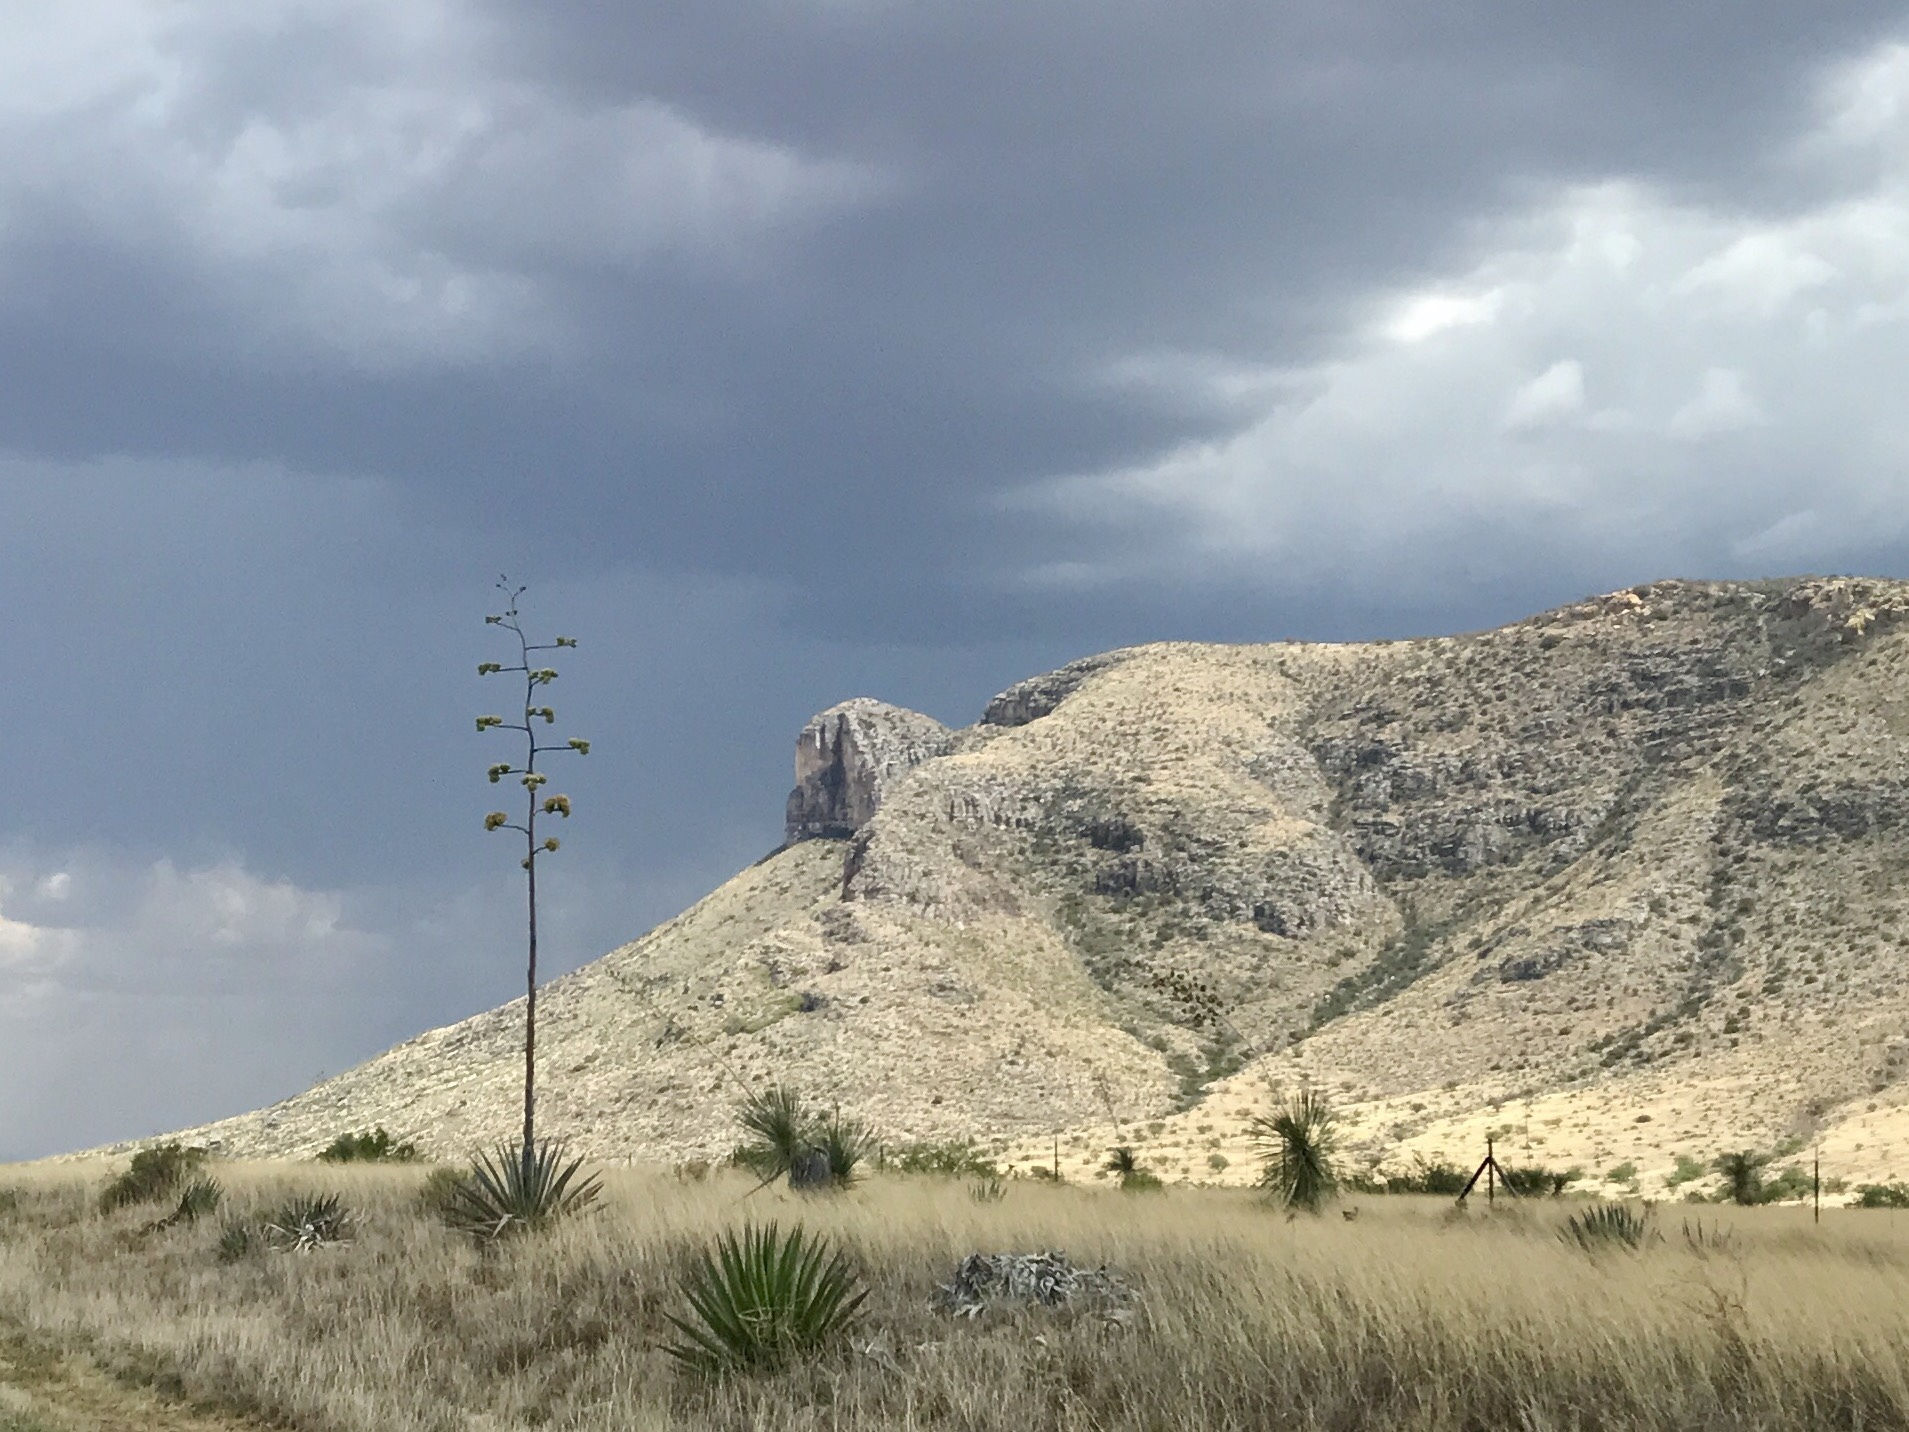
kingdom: Plantae
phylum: Tracheophyta
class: Liliopsida
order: Asparagales
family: Asparagaceae
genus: Agave
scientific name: Agave palmeri
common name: Palmer agave
